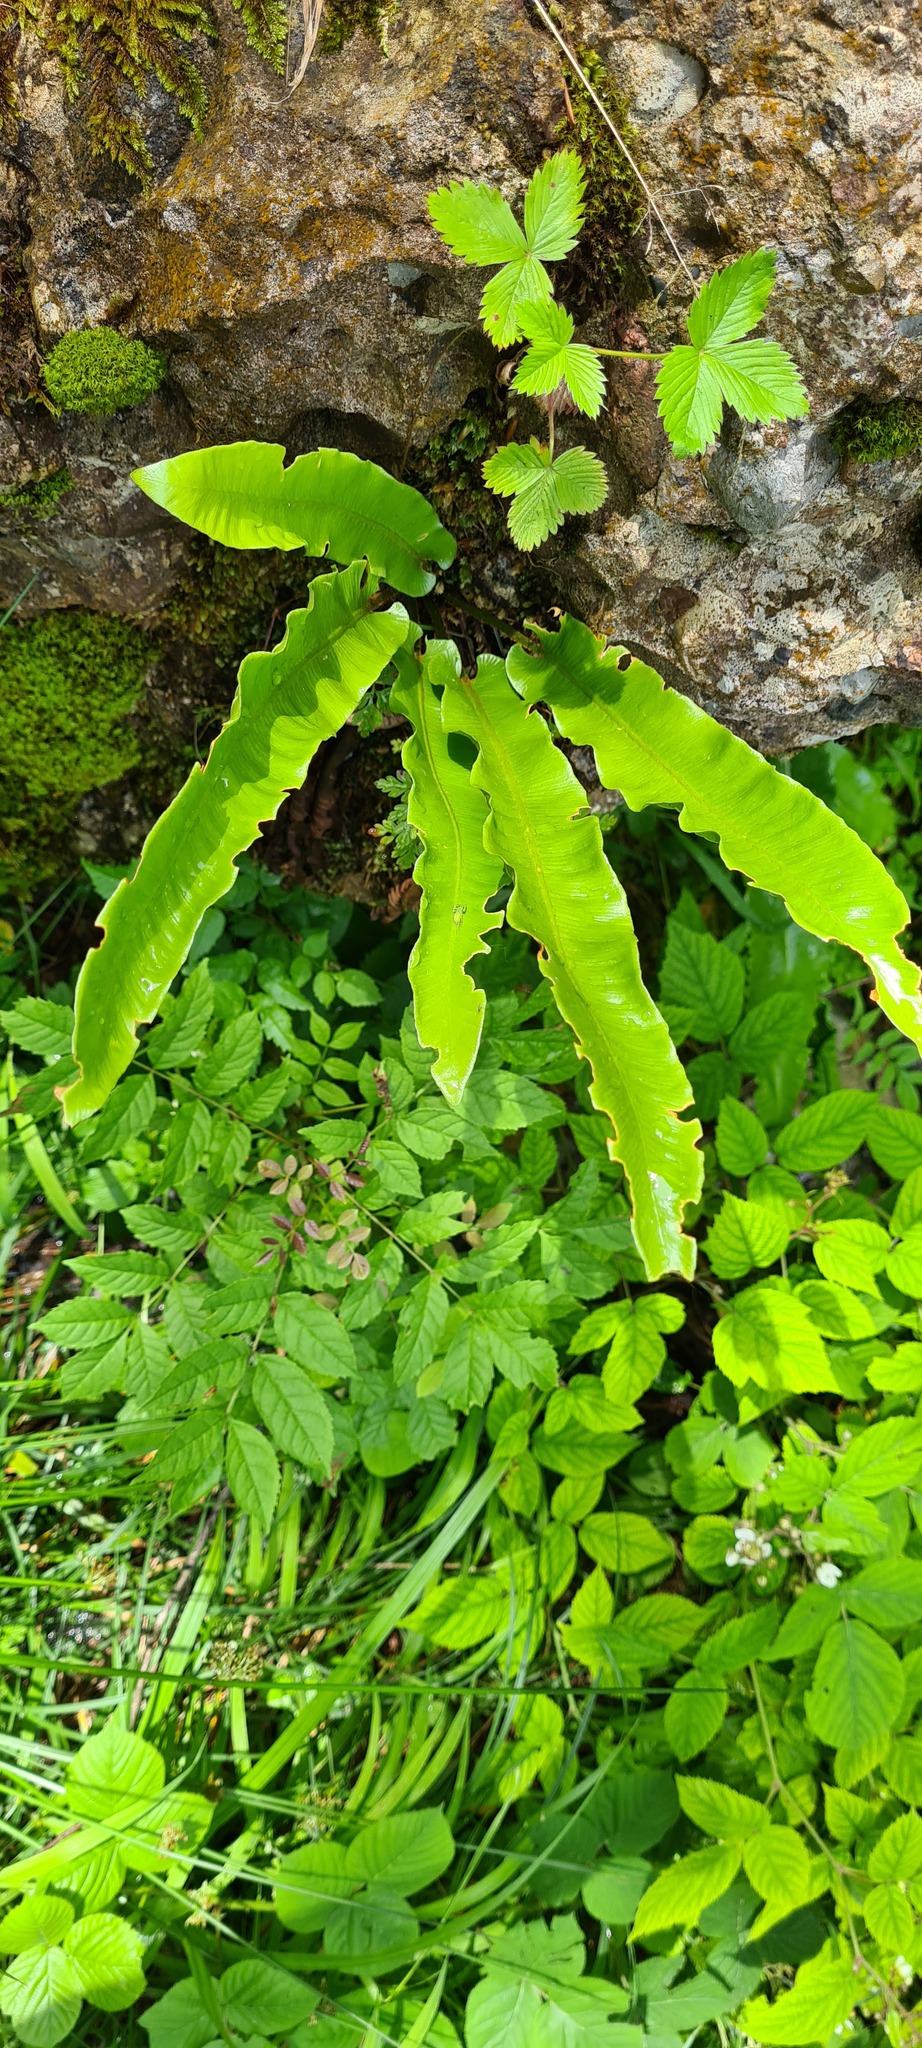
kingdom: Plantae
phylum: Tracheophyta
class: Polypodiopsida
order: Polypodiales
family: Aspleniaceae
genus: Asplenium
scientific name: Asplenium scolopendrium
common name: Hart's-tongue fern
